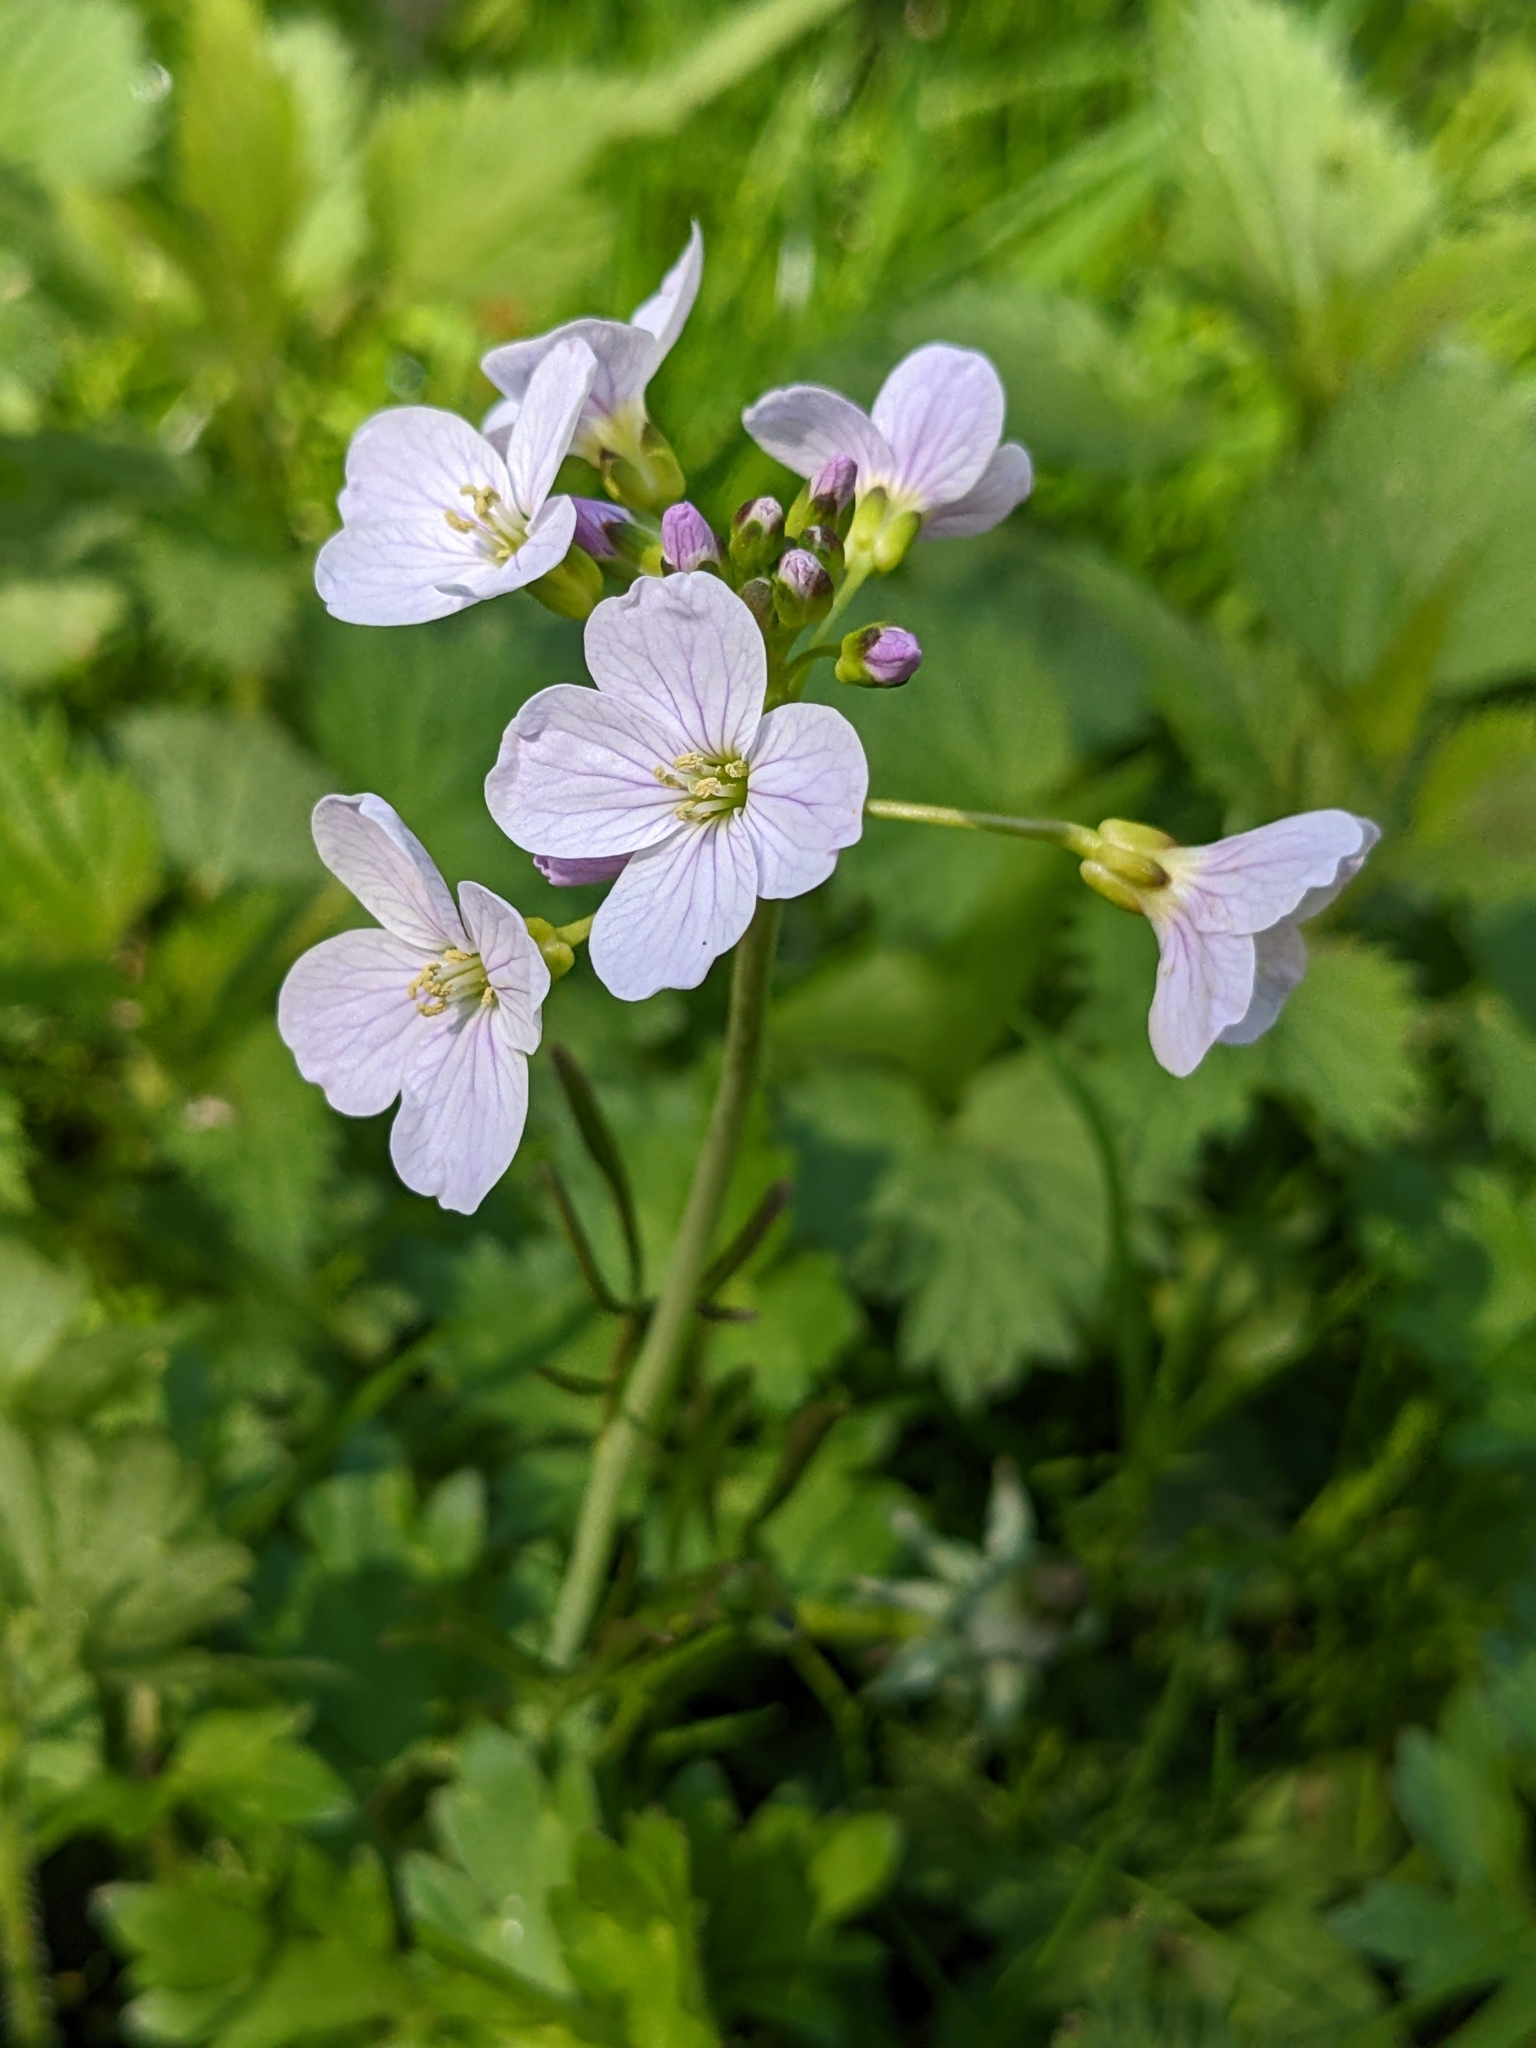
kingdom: Plantae
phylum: Tracheophyta
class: Magnoliopsida
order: Brassicales
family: Brassicaceae
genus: Cardamine
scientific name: Cardamine pratensis
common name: Cuckoo flower
